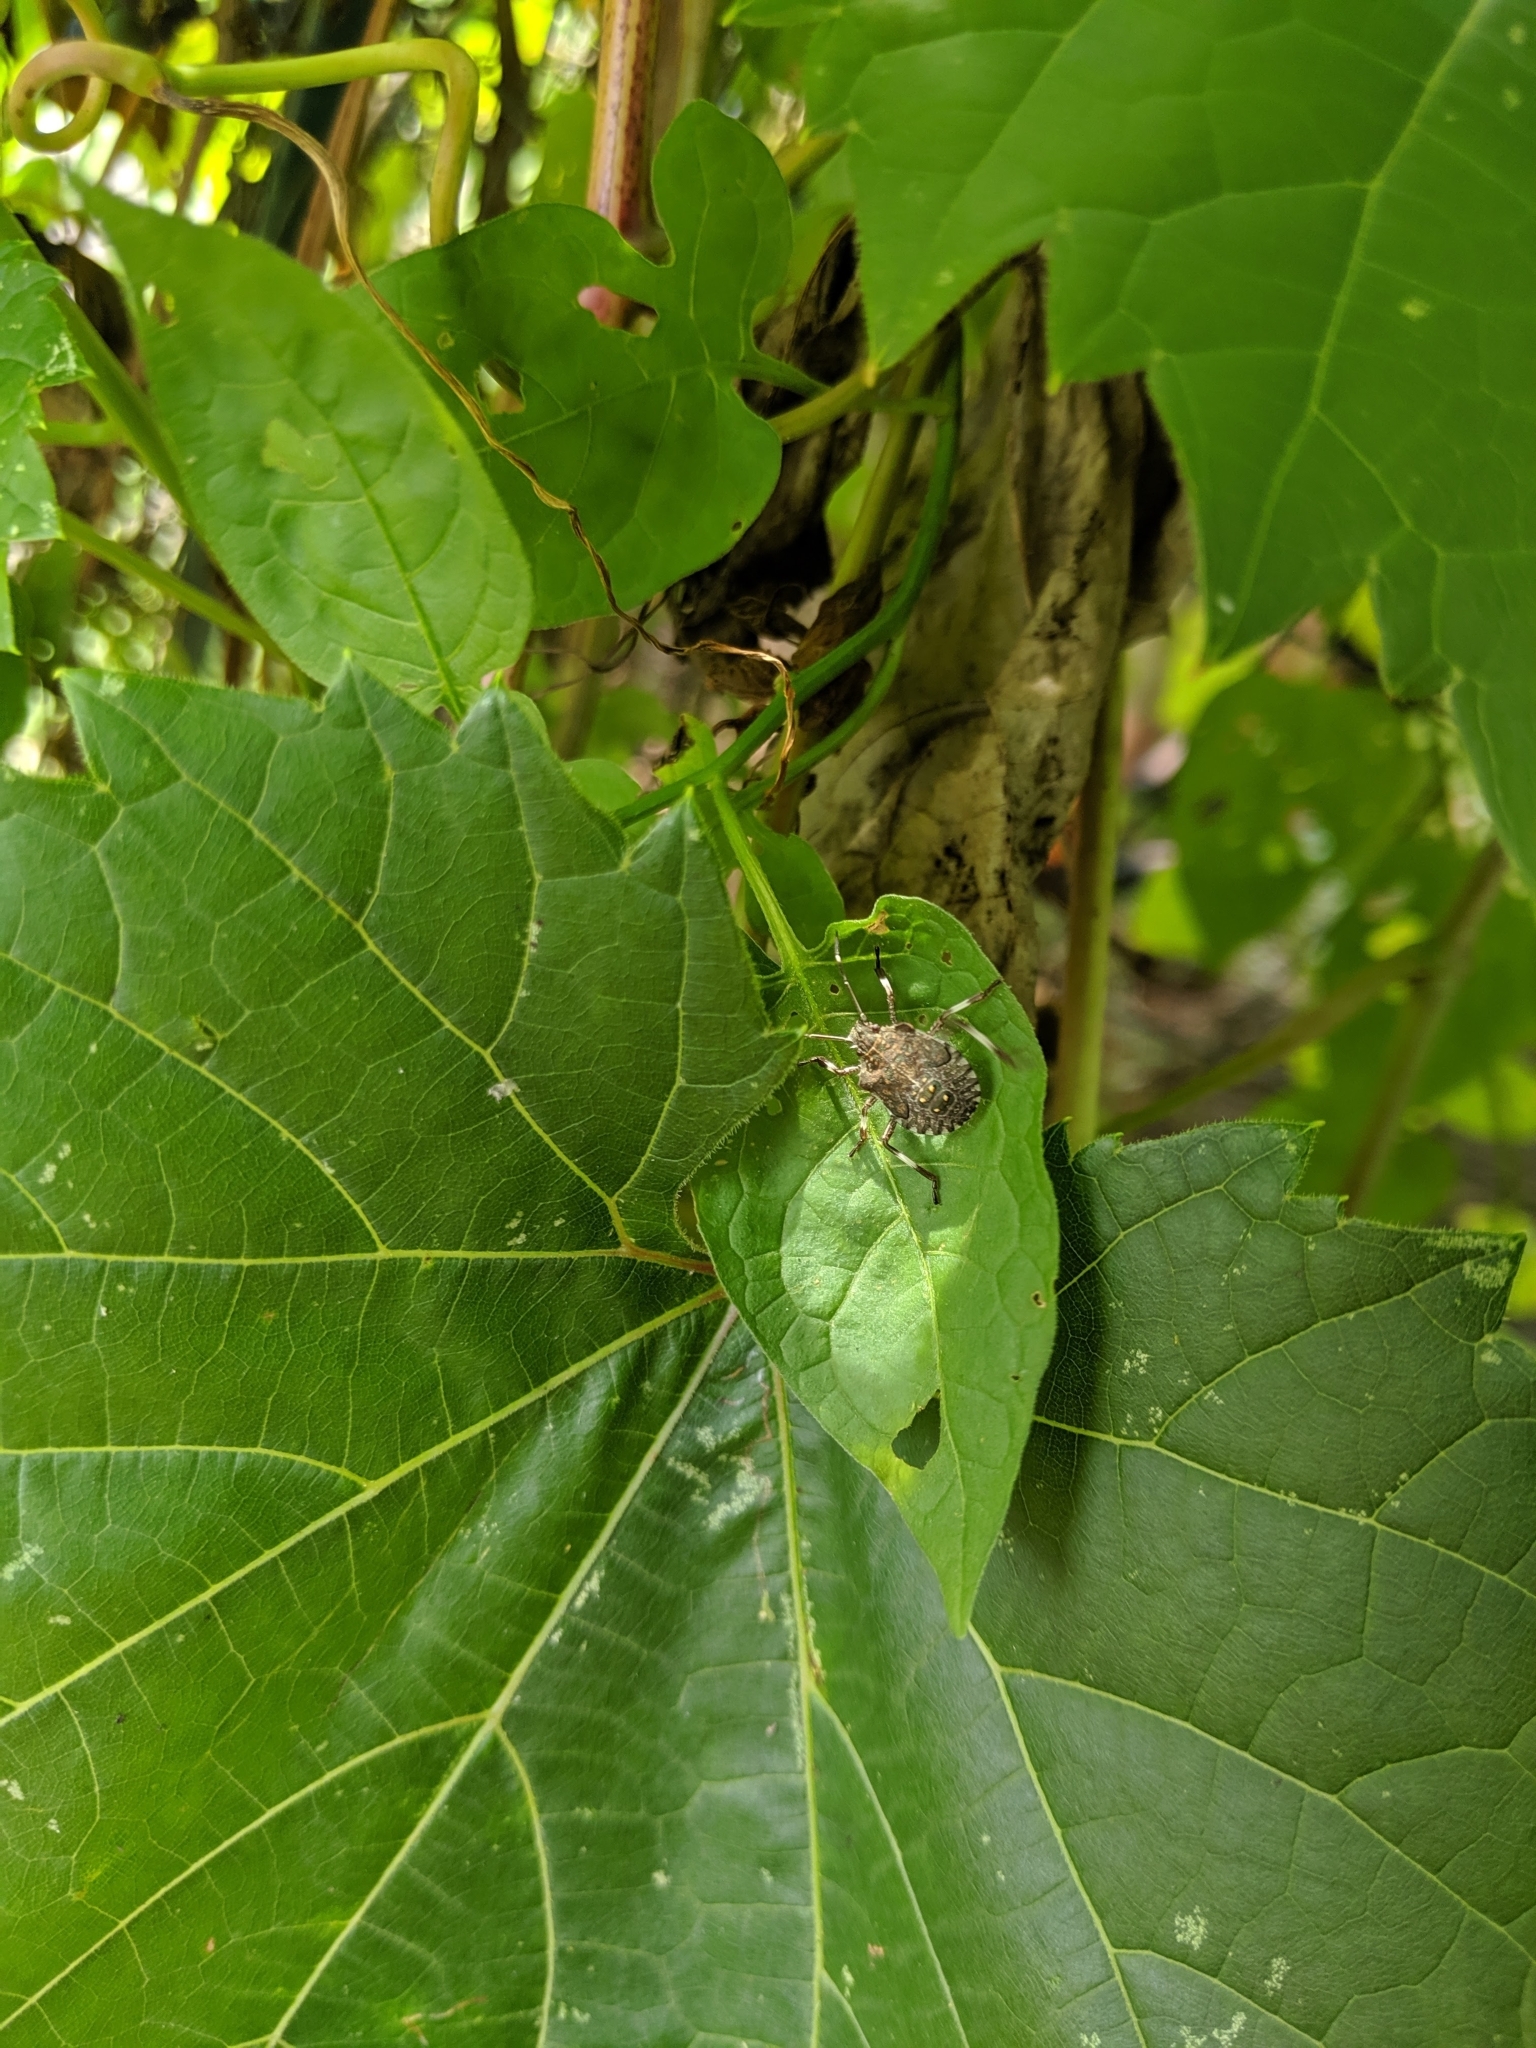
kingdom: Animalia
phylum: Arthropoda
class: Insecta
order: Hemiptera
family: Pentatomidae
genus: Halyomorpha
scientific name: Halyomorpha halys
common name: Brown marmorated stink bug
